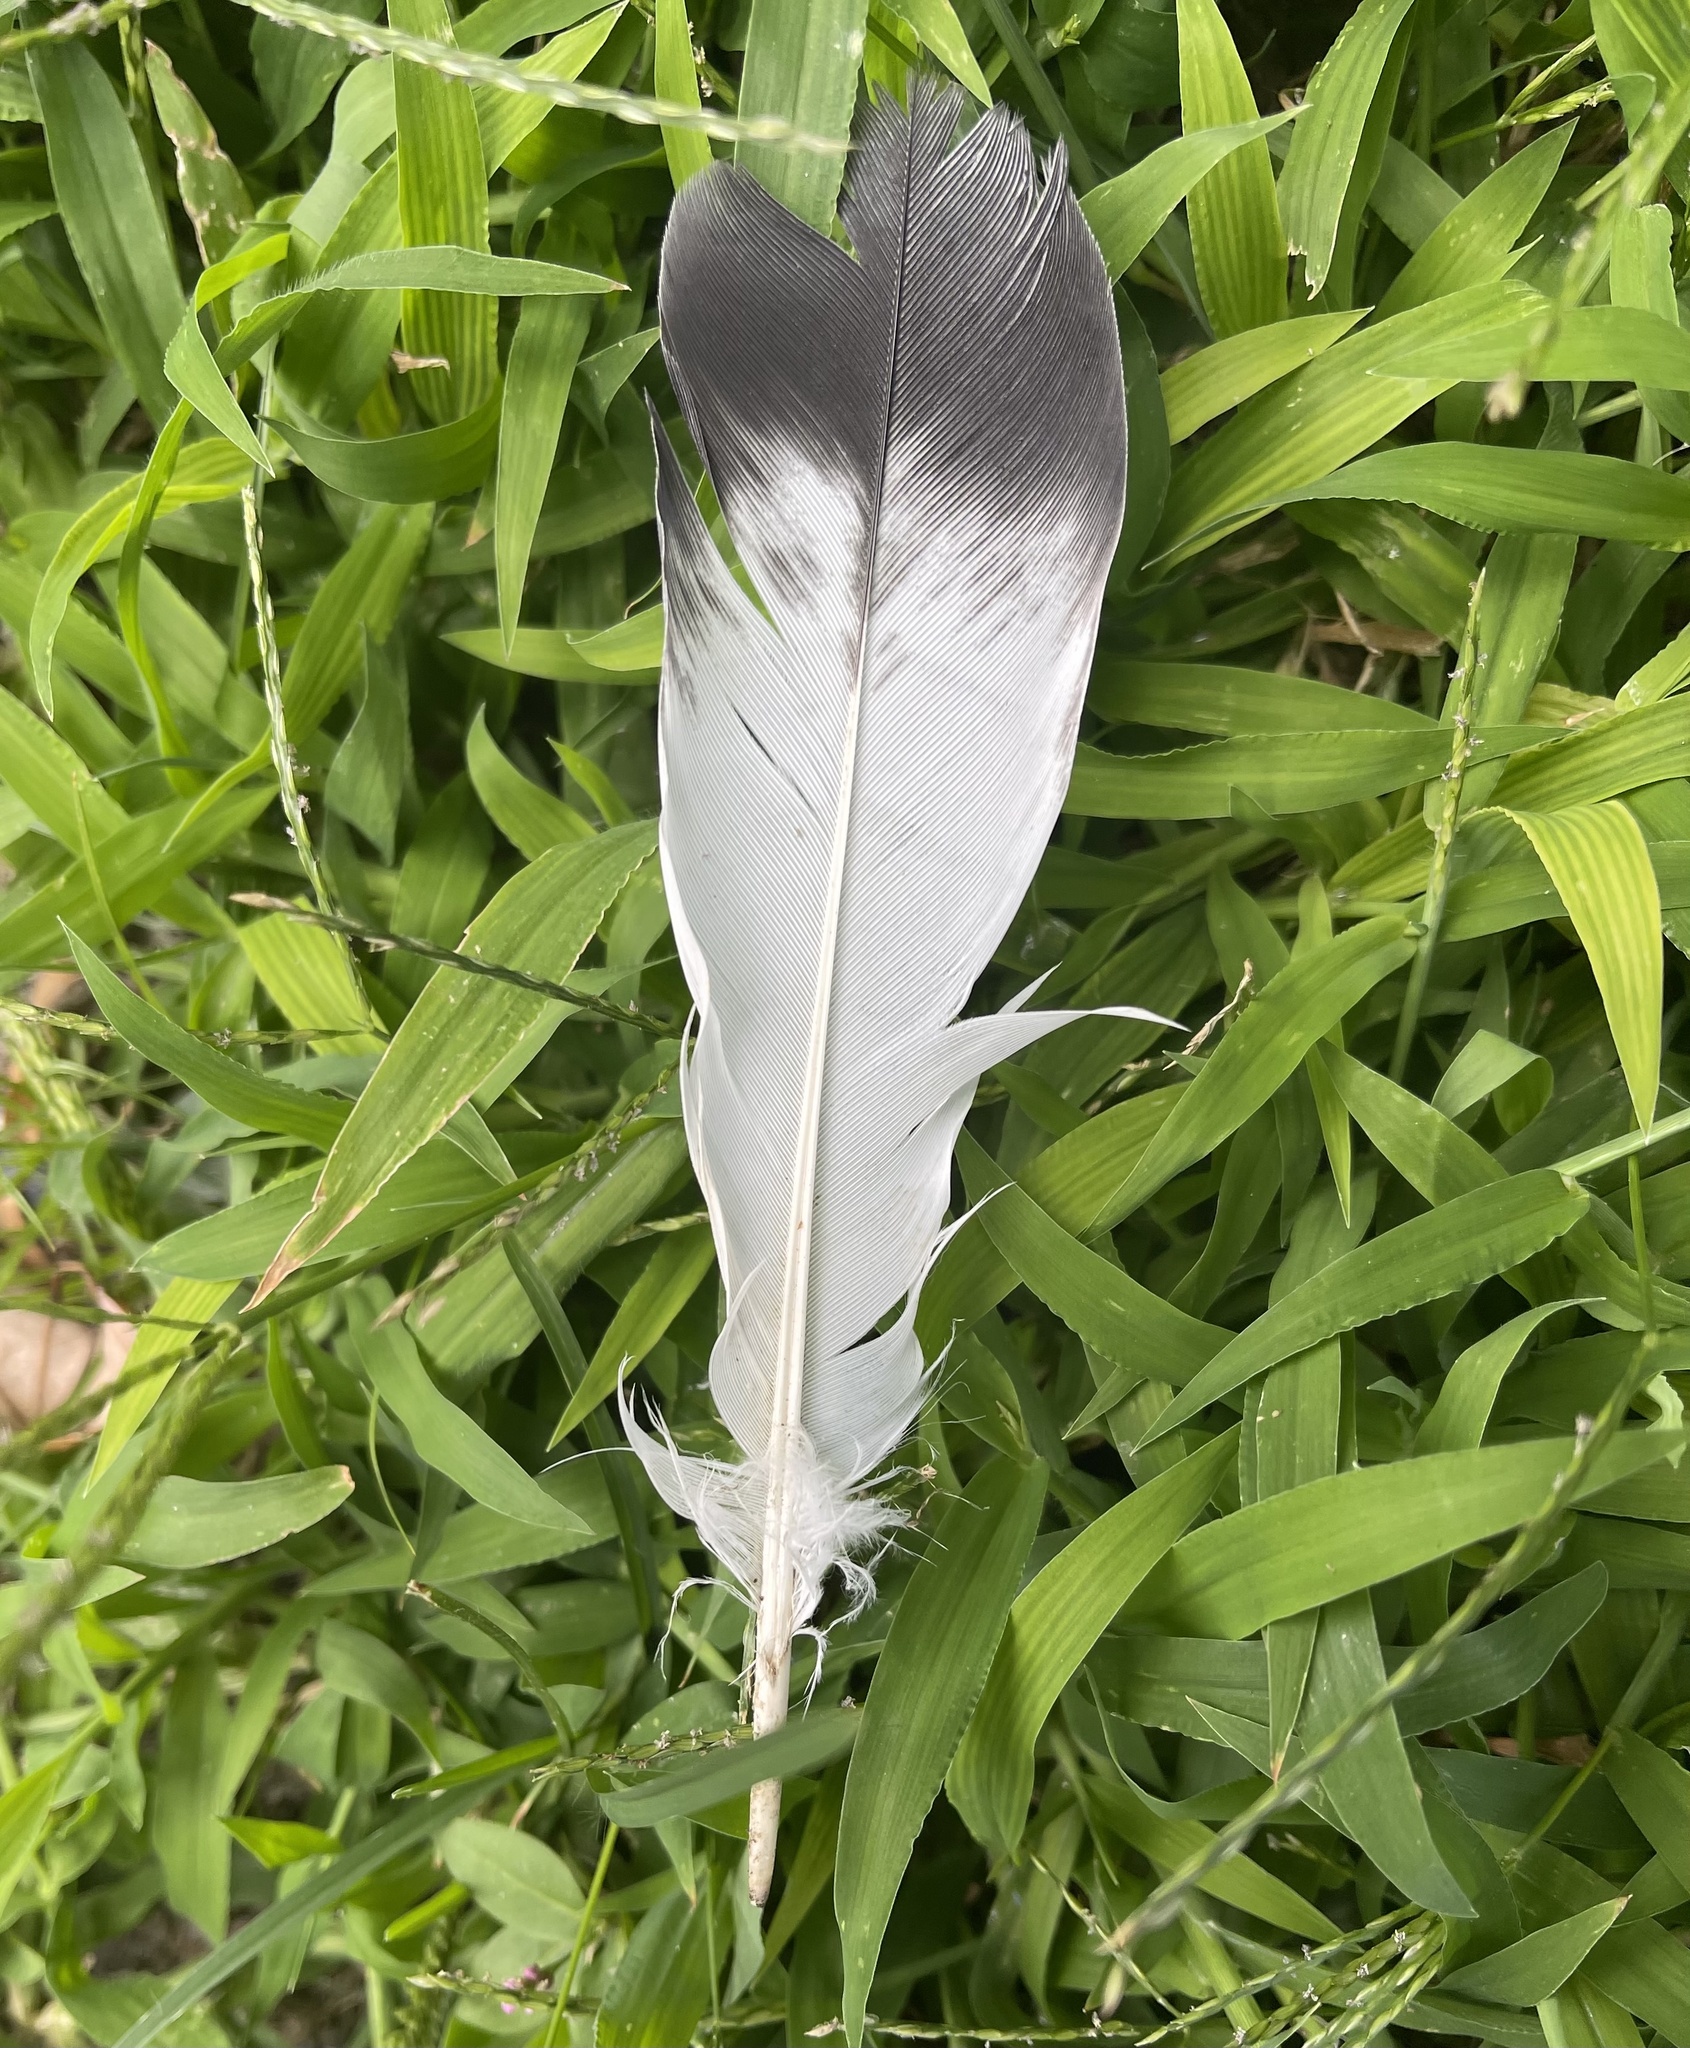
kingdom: Animalia
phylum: Chordata
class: Aves
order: Columbiformes
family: Columbidae
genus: Columba
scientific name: Columba livia
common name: Rock pigeon
